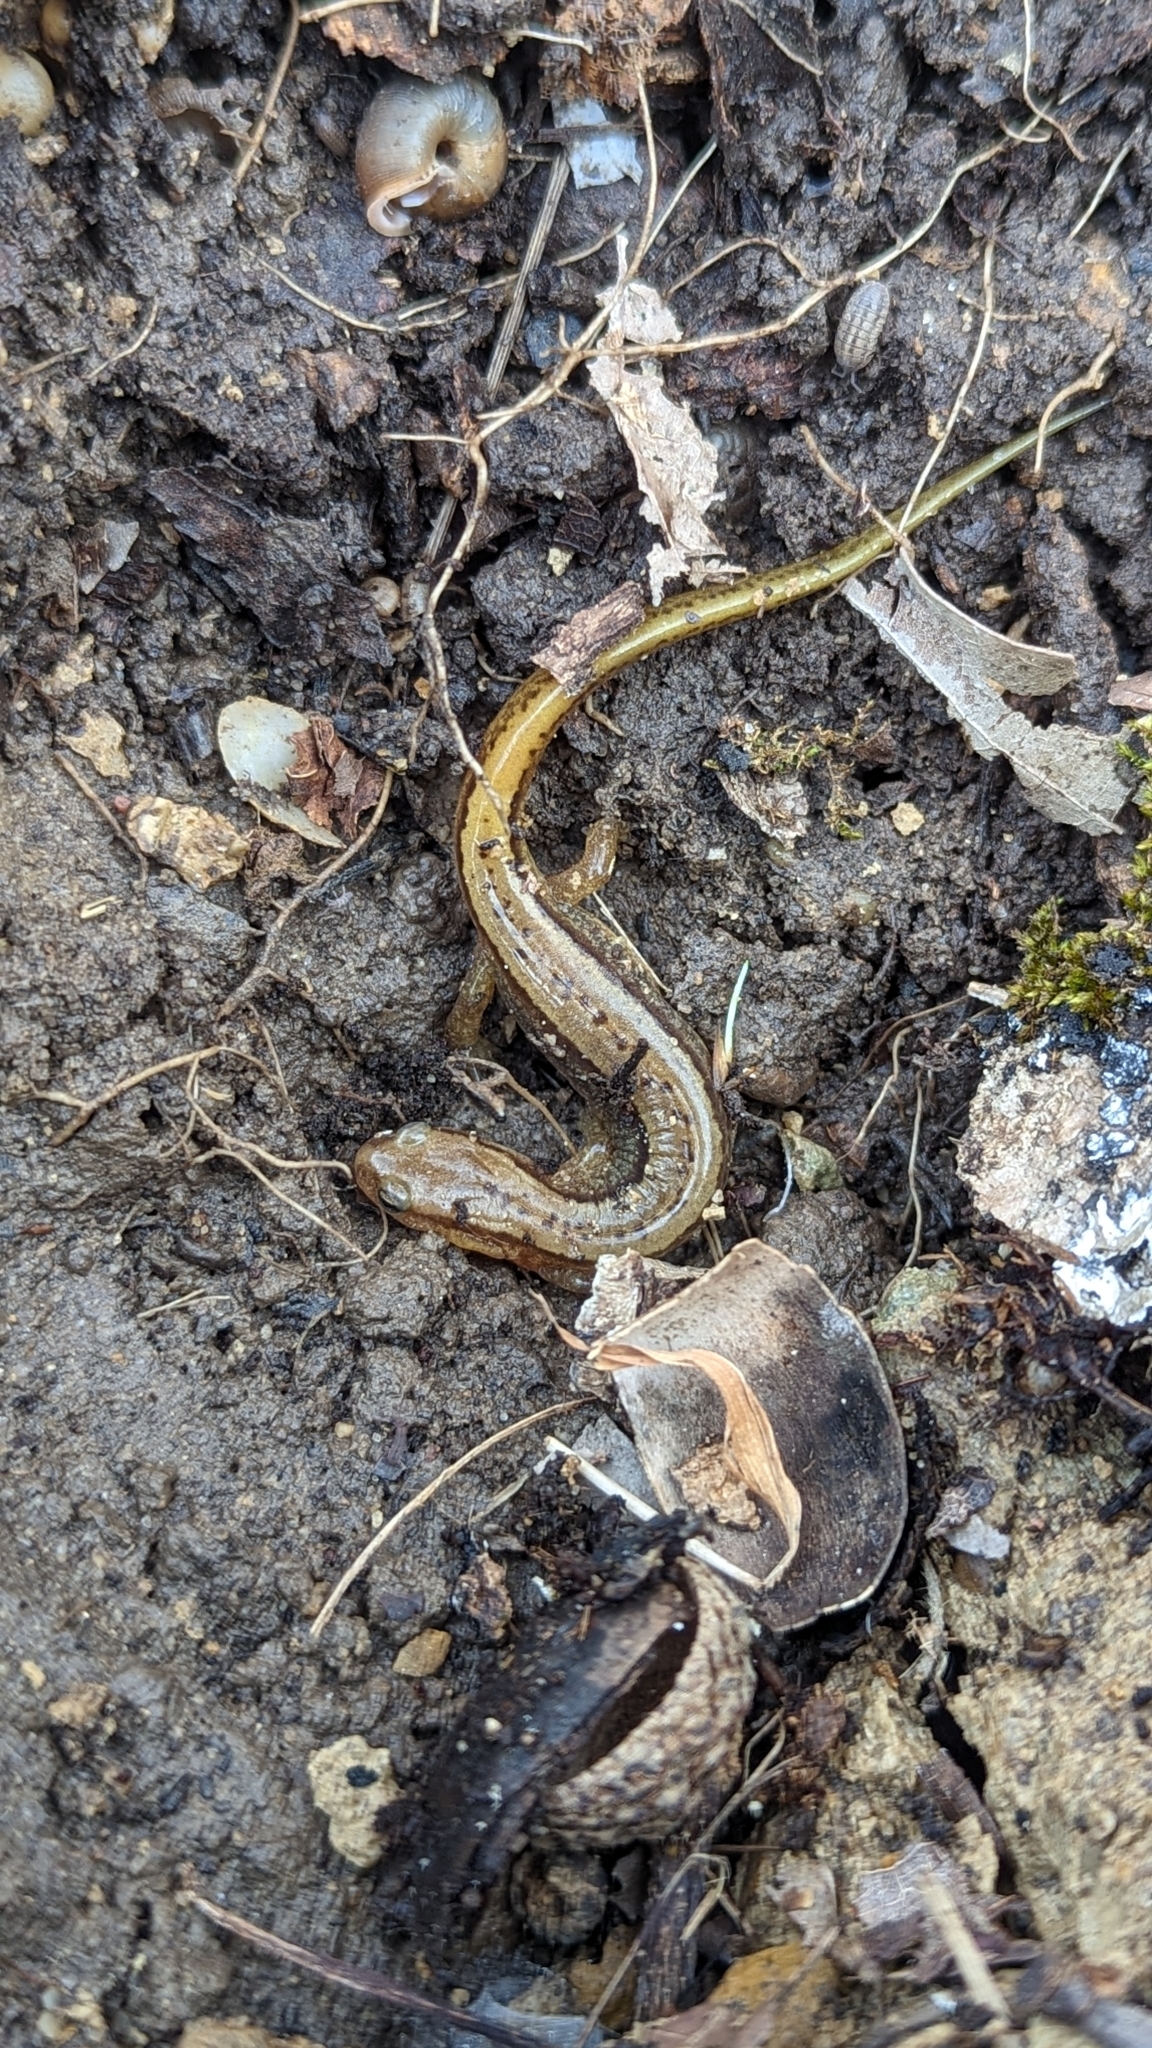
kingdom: Animalia
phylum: Chordata
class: Amphibia
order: Caudata
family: Plethodontidae
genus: Eurycea
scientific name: Eurycea cirrigera
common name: Southern two-lined salamander
